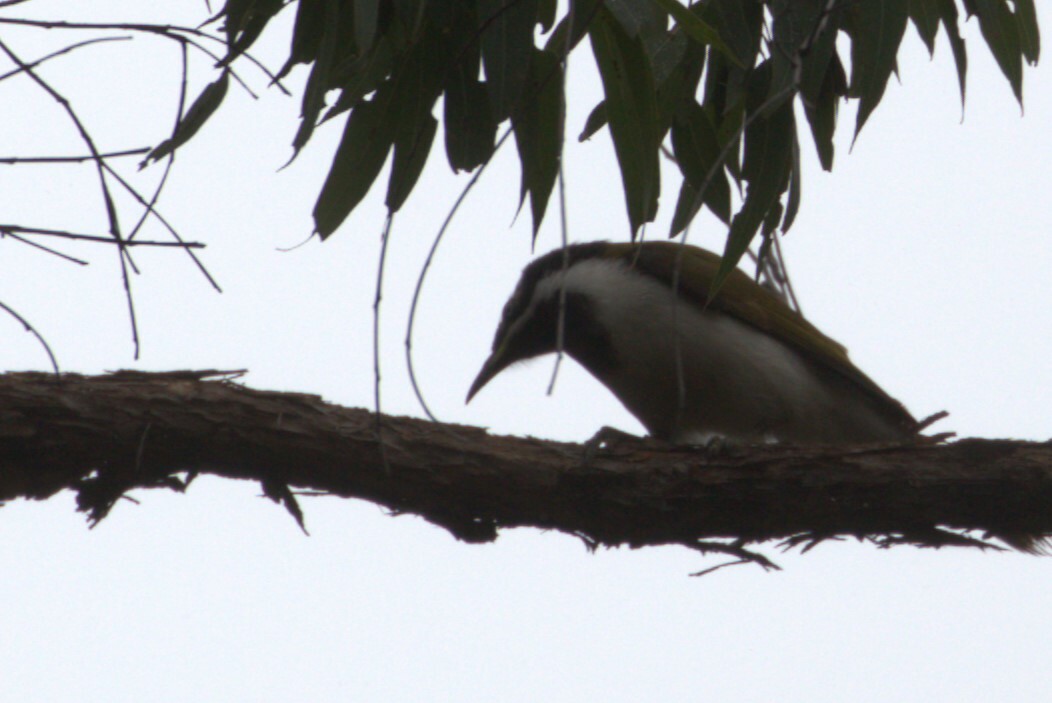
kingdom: Animalia
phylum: Chordata
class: Aves
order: Passeriformes
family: Meliphagidae
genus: Entomyzon
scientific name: Entomyzon cyanotis
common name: Blue-faced honeyeater
